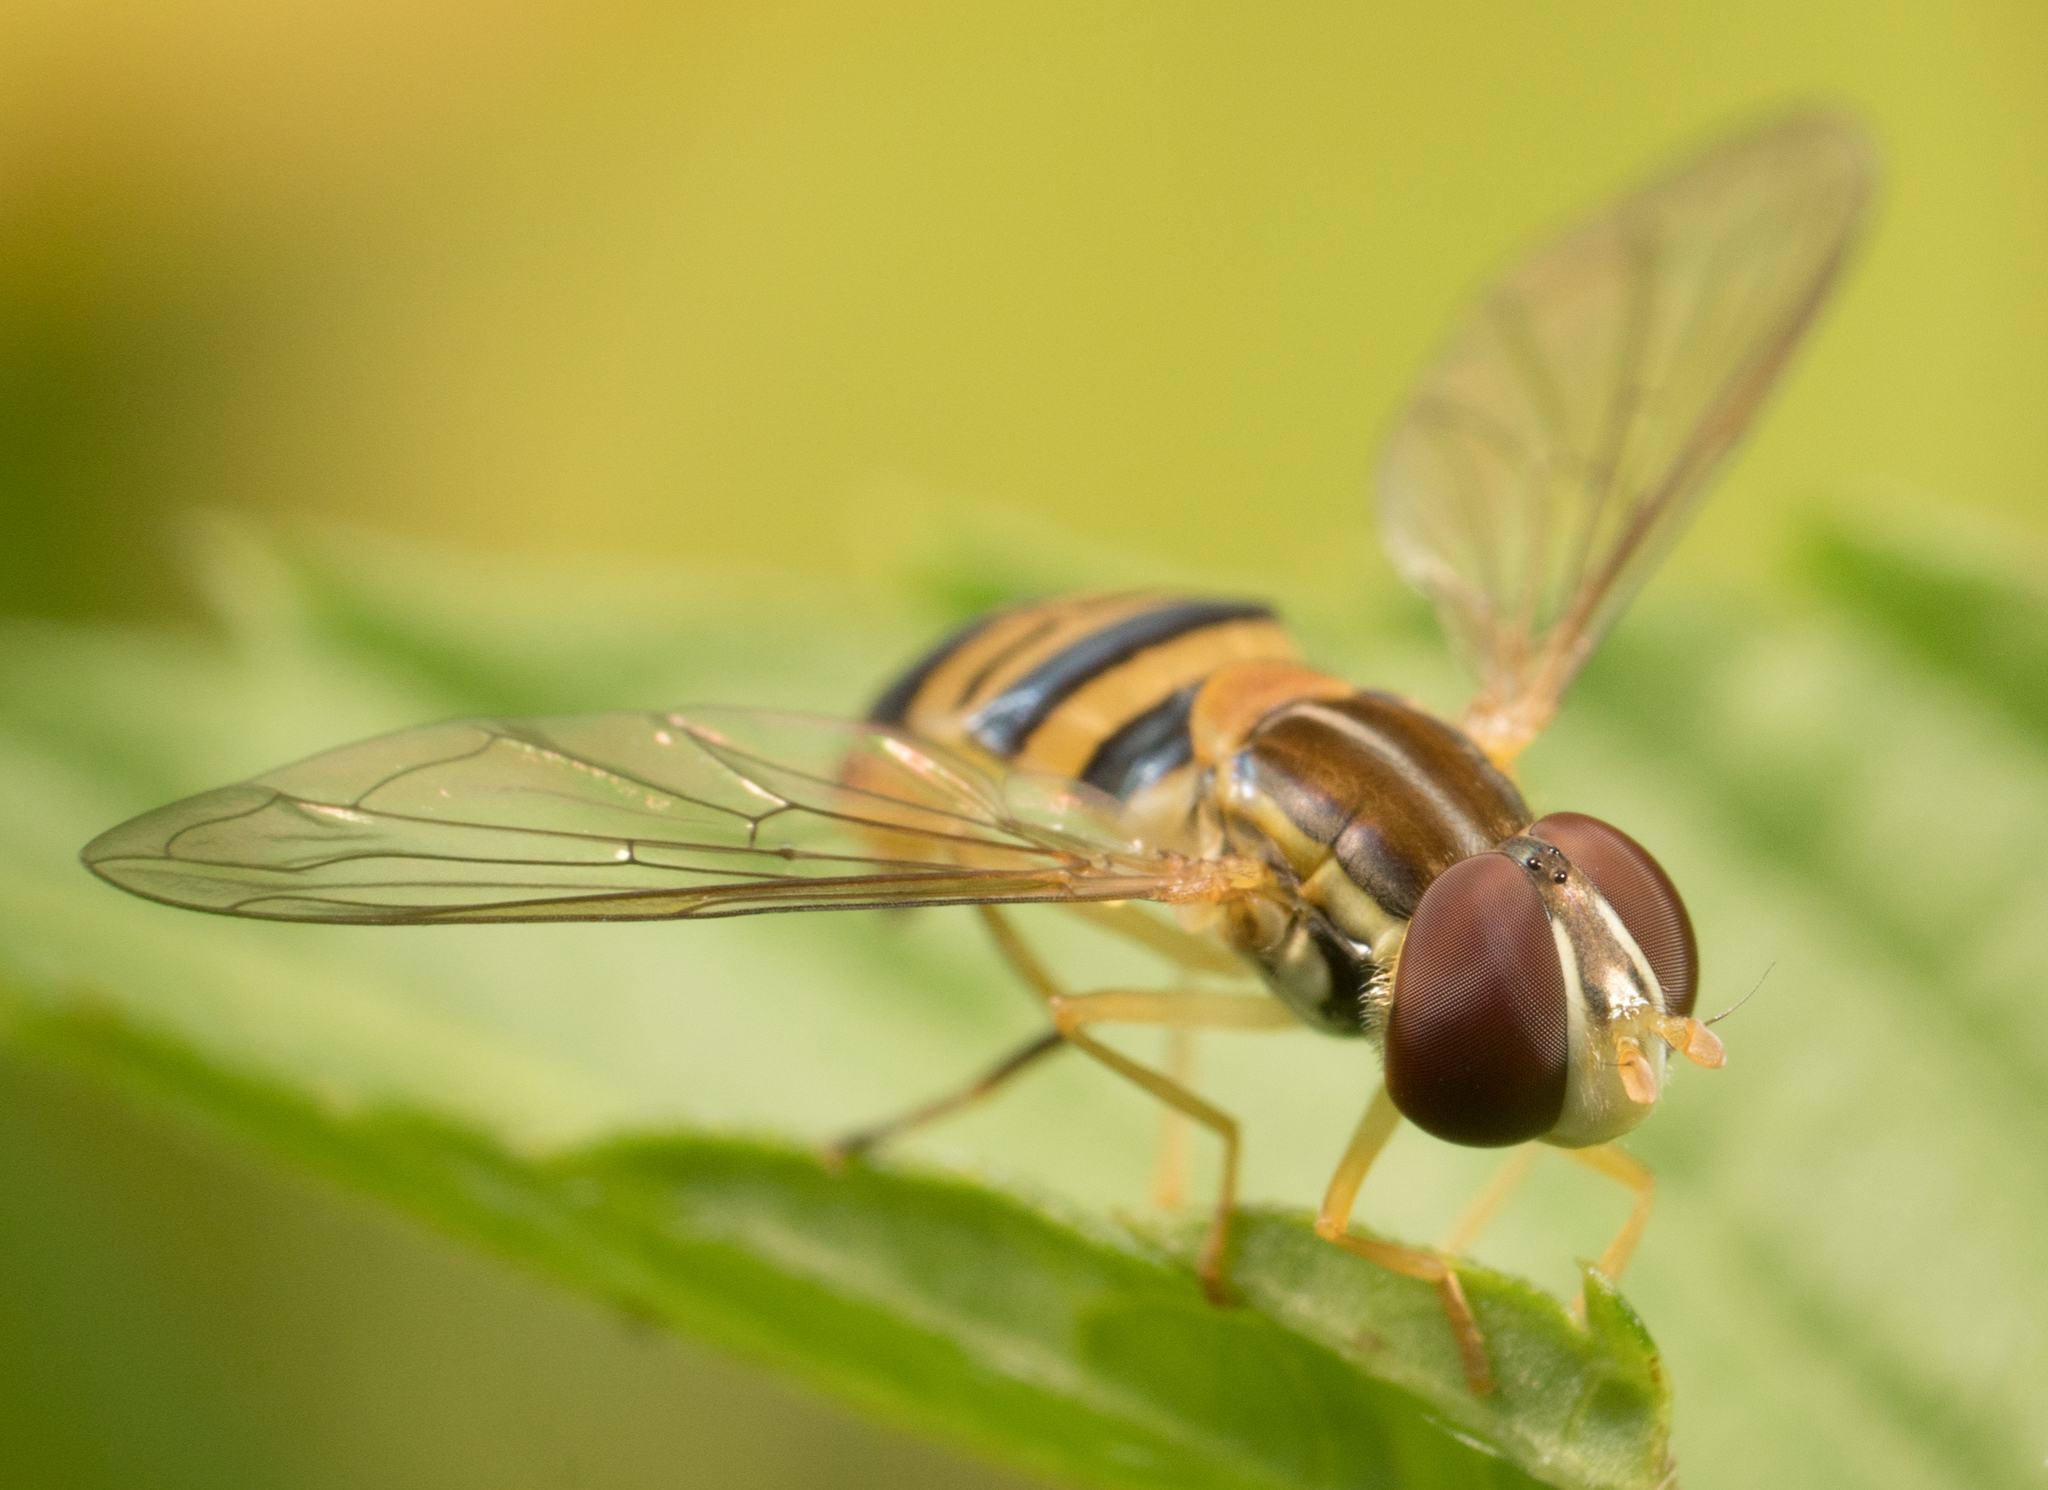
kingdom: Animalia
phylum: Arthropoda
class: Insecta
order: Diptera
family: Syrphidae
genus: Toxomerus
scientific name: Toxomerus politus
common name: Maize calligrapher
